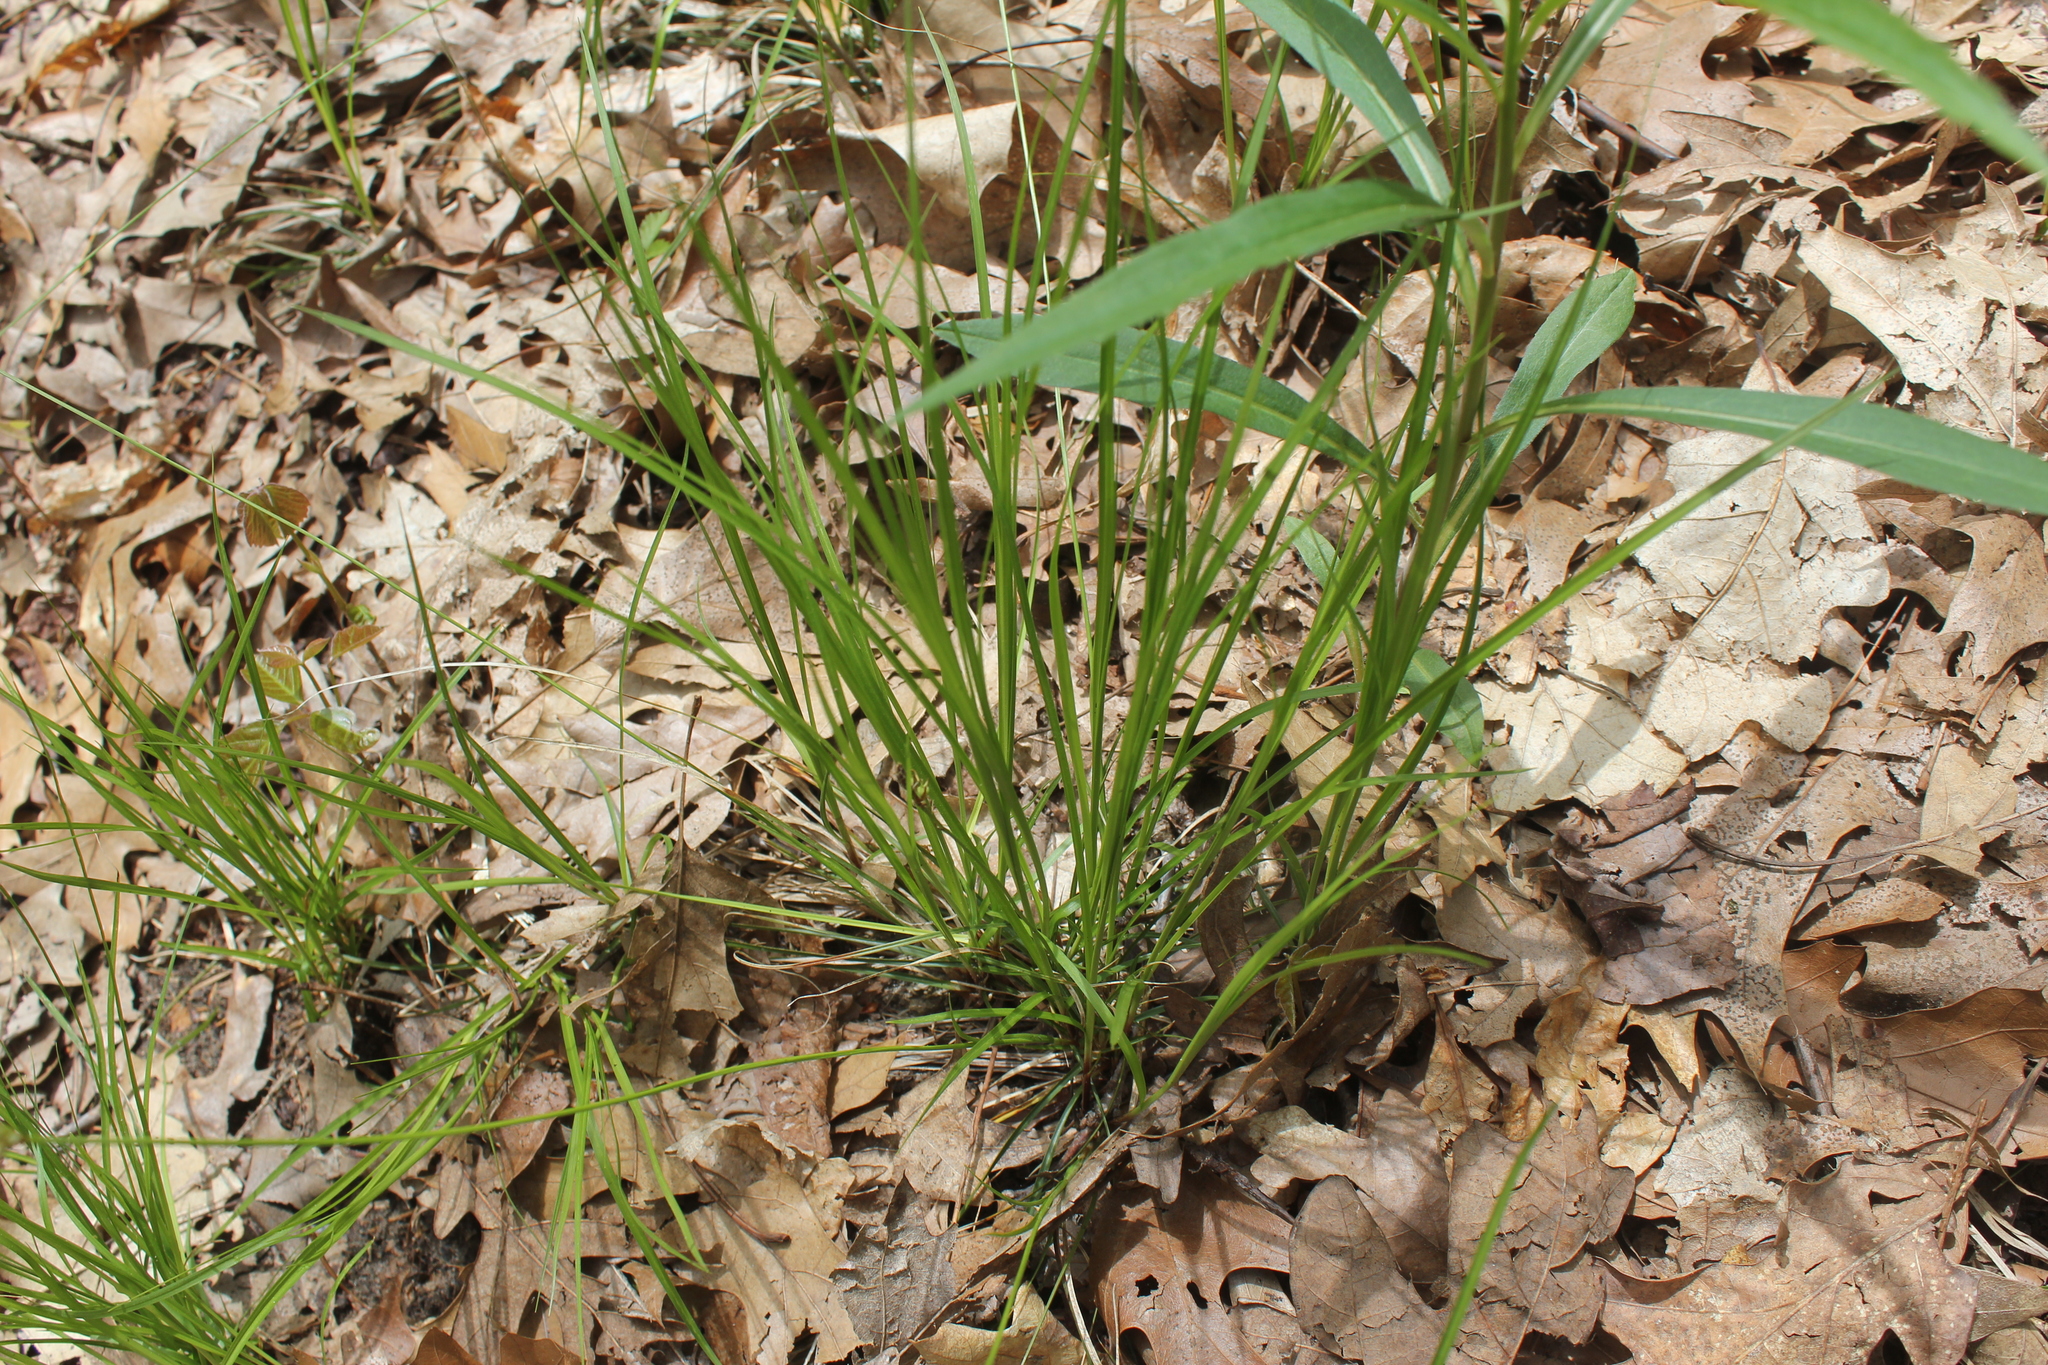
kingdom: Plantae
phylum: Tracheophyta
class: Liliopsida
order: Poales
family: Cyperaceae
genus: Carex
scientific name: Carex pensylvanica
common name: Common oak sedge
